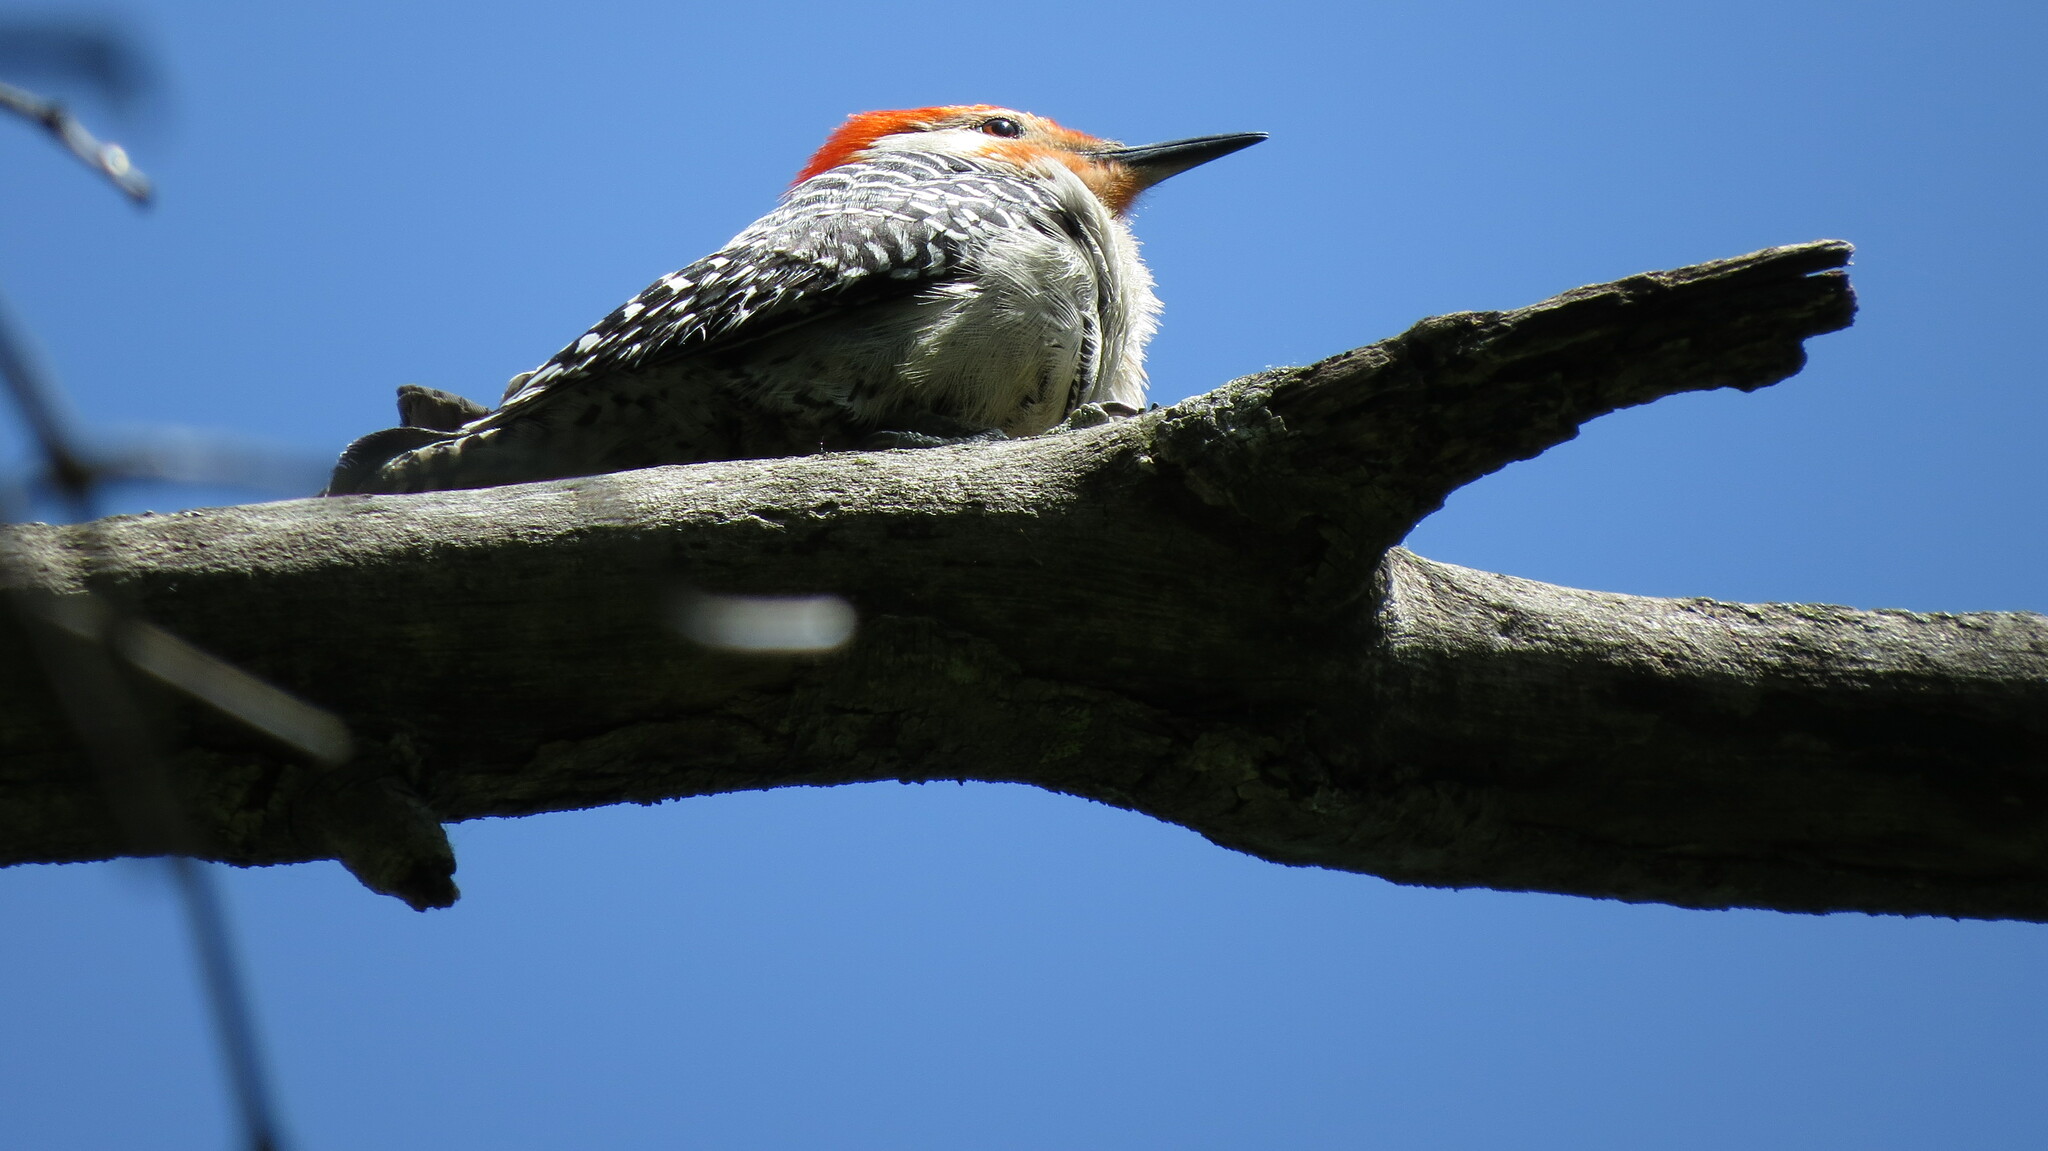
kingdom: Animalia
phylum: Chordata
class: Aves
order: Piciformes
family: Picidae
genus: Melanerpes
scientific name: Melanerpes carolinus
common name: Red-bellied woodpecker
